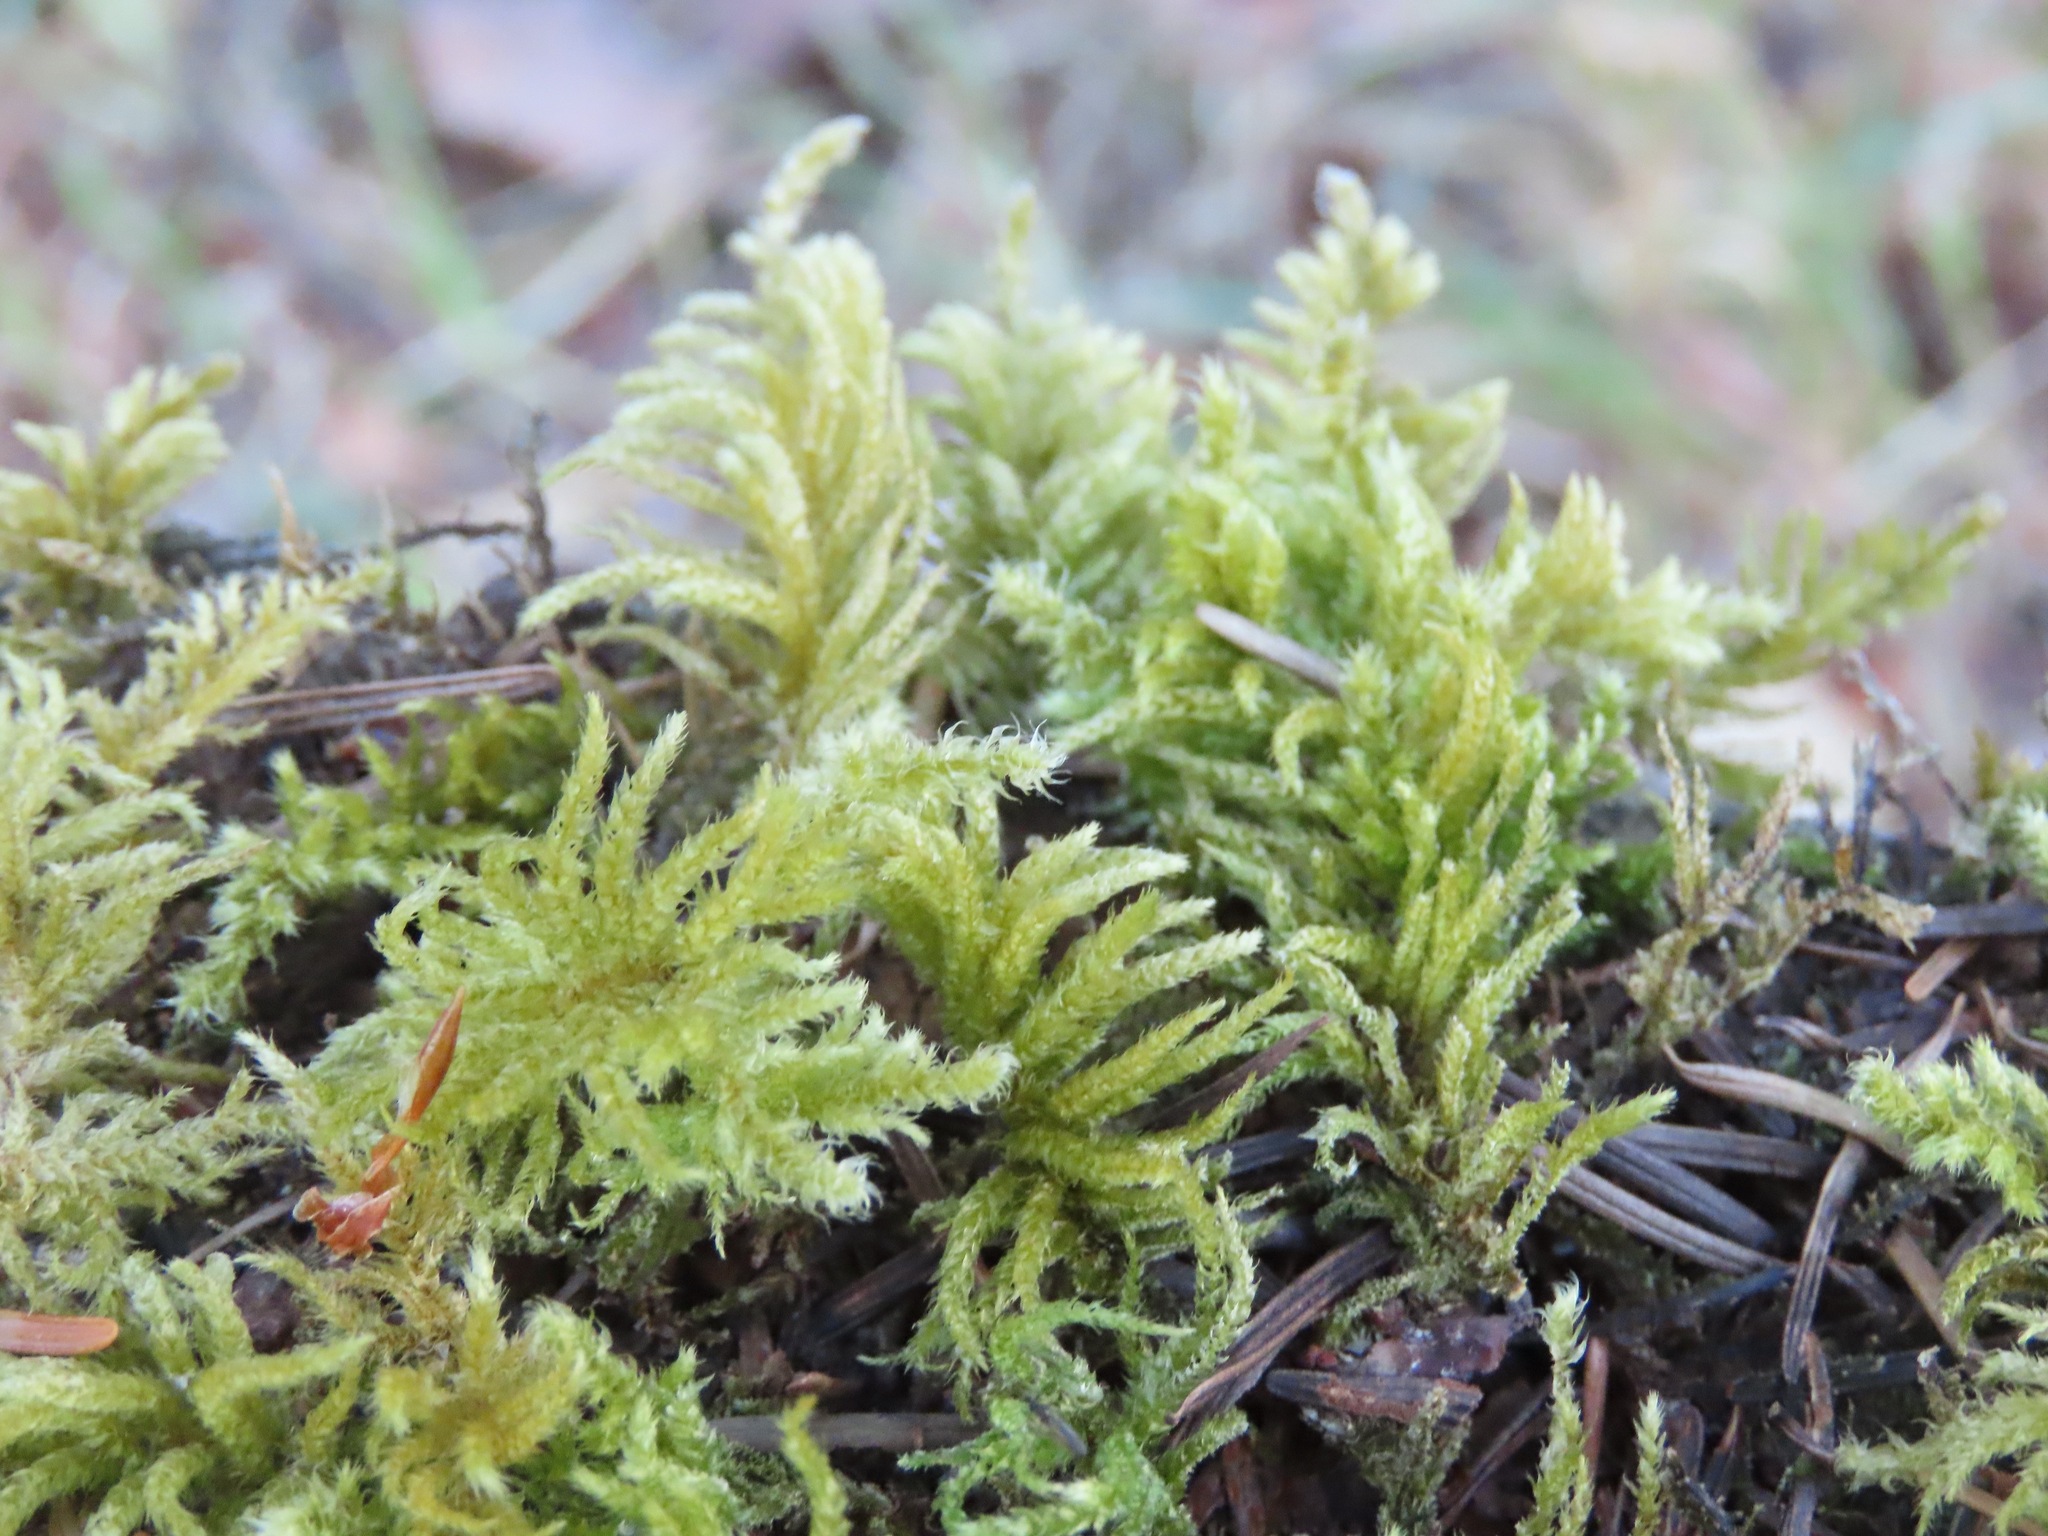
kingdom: Plantae
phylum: Bryophyta
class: Bryopsida
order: Hypnales
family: Brachytheciaceae
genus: Kindbergia
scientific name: Kindbergia oregana
